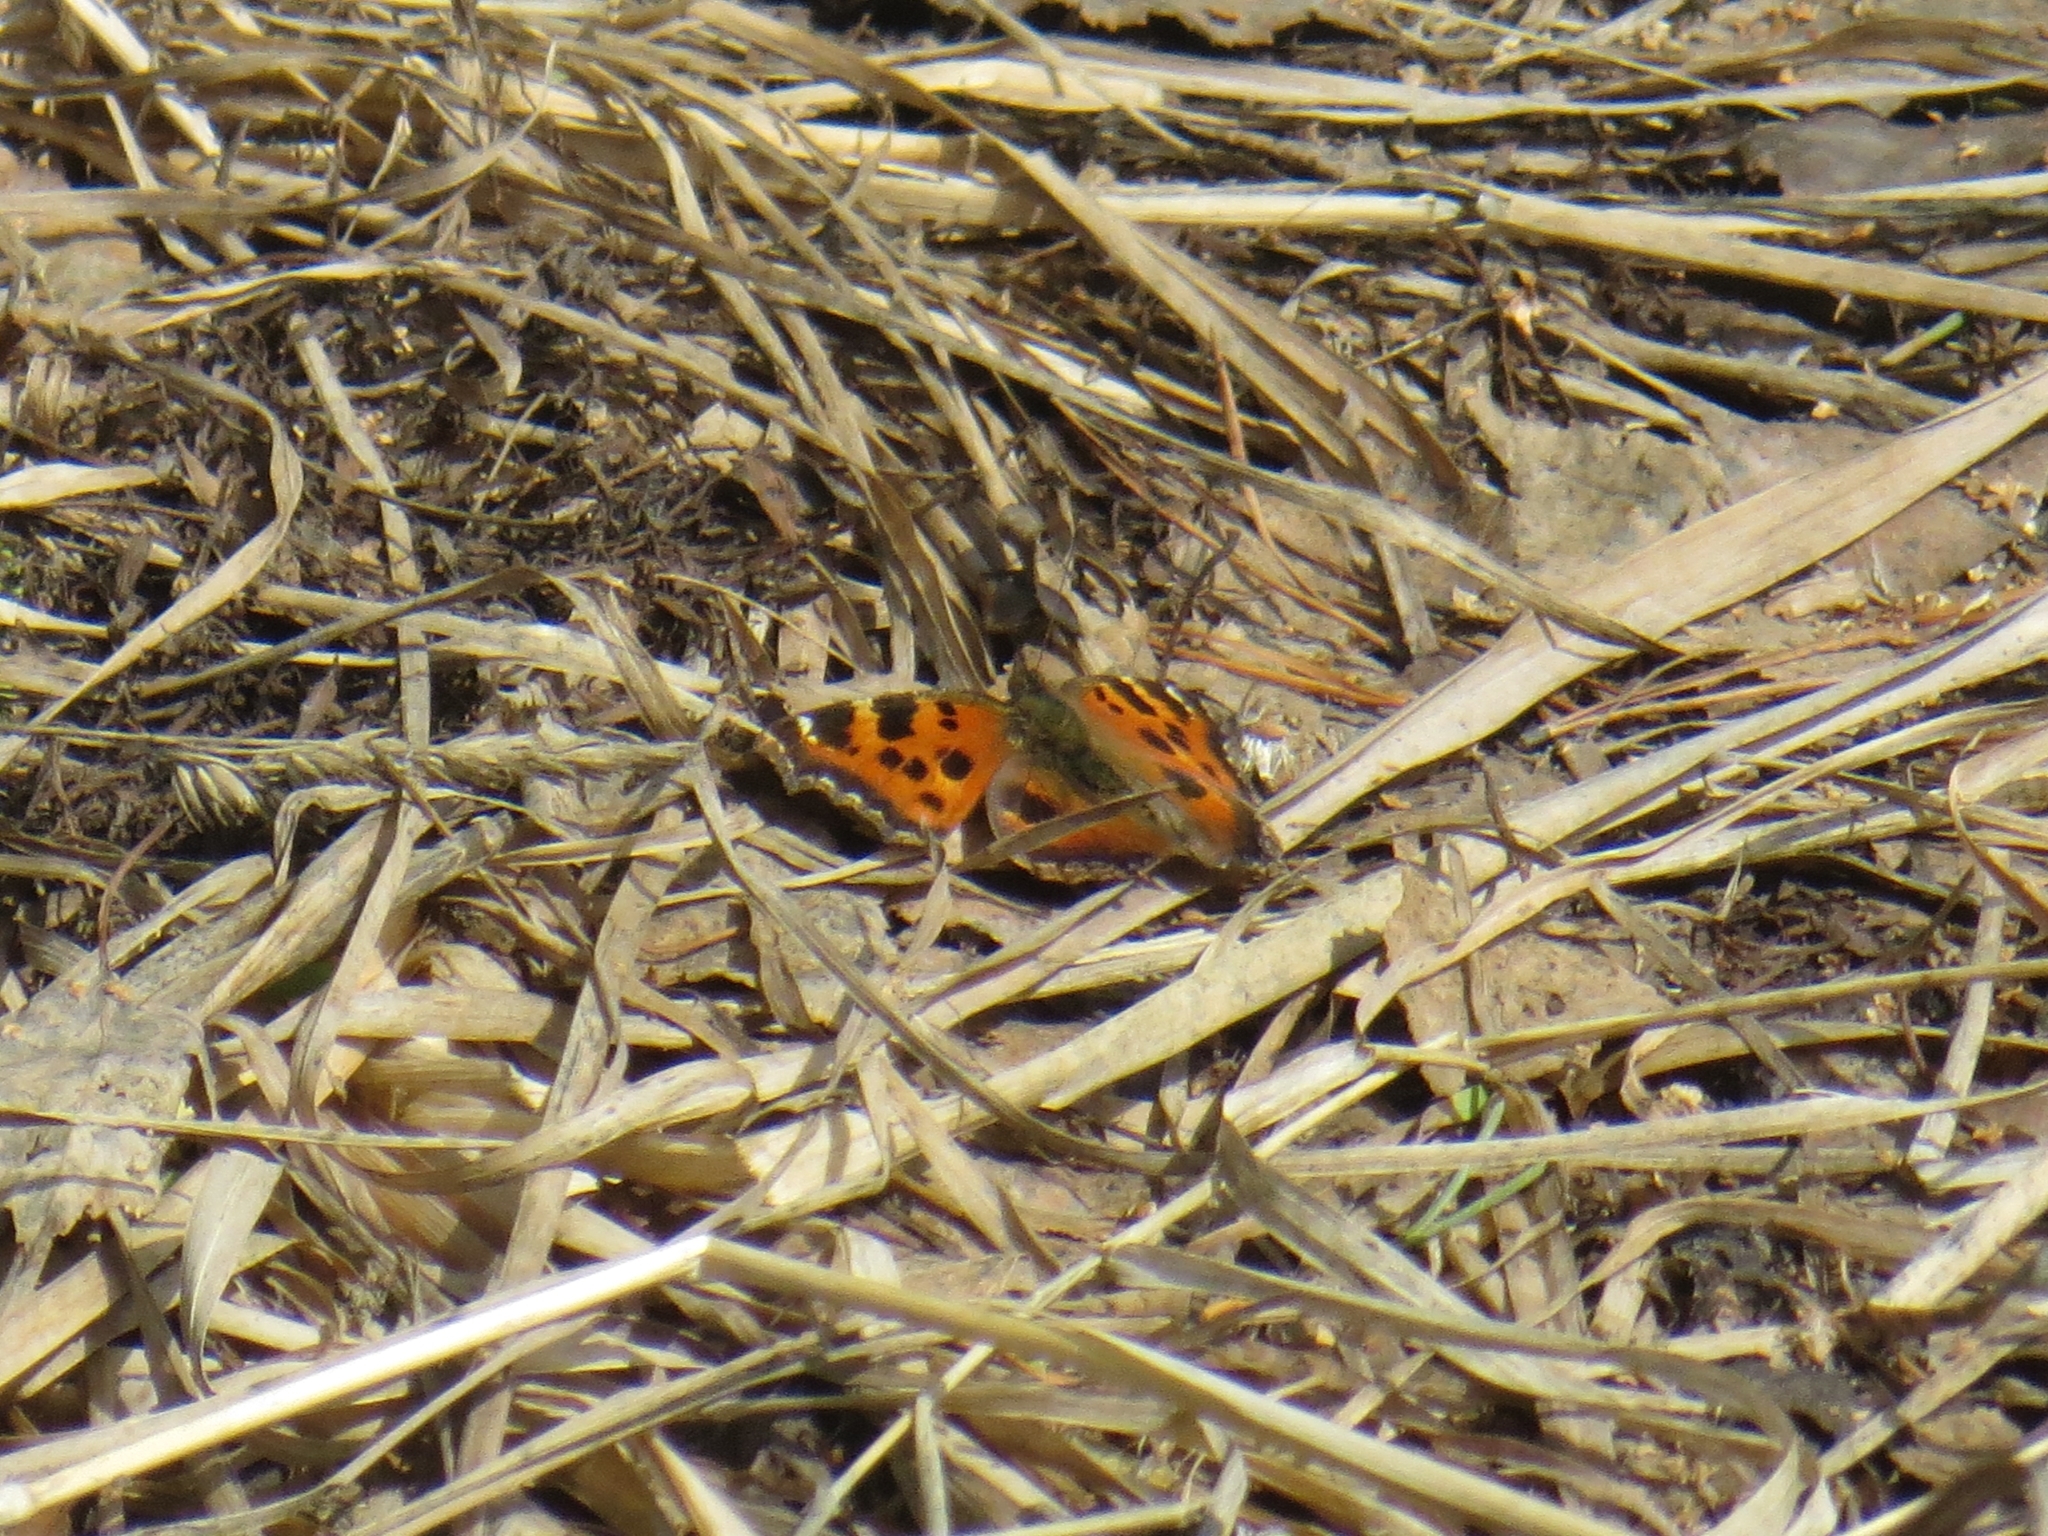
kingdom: Animalia
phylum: Arthropoda
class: Insecta
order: Lepidoptera
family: Nymphalidae
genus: Nymphalis
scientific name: Nymphalis xanthomelas
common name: Scarce tortoiseshell
